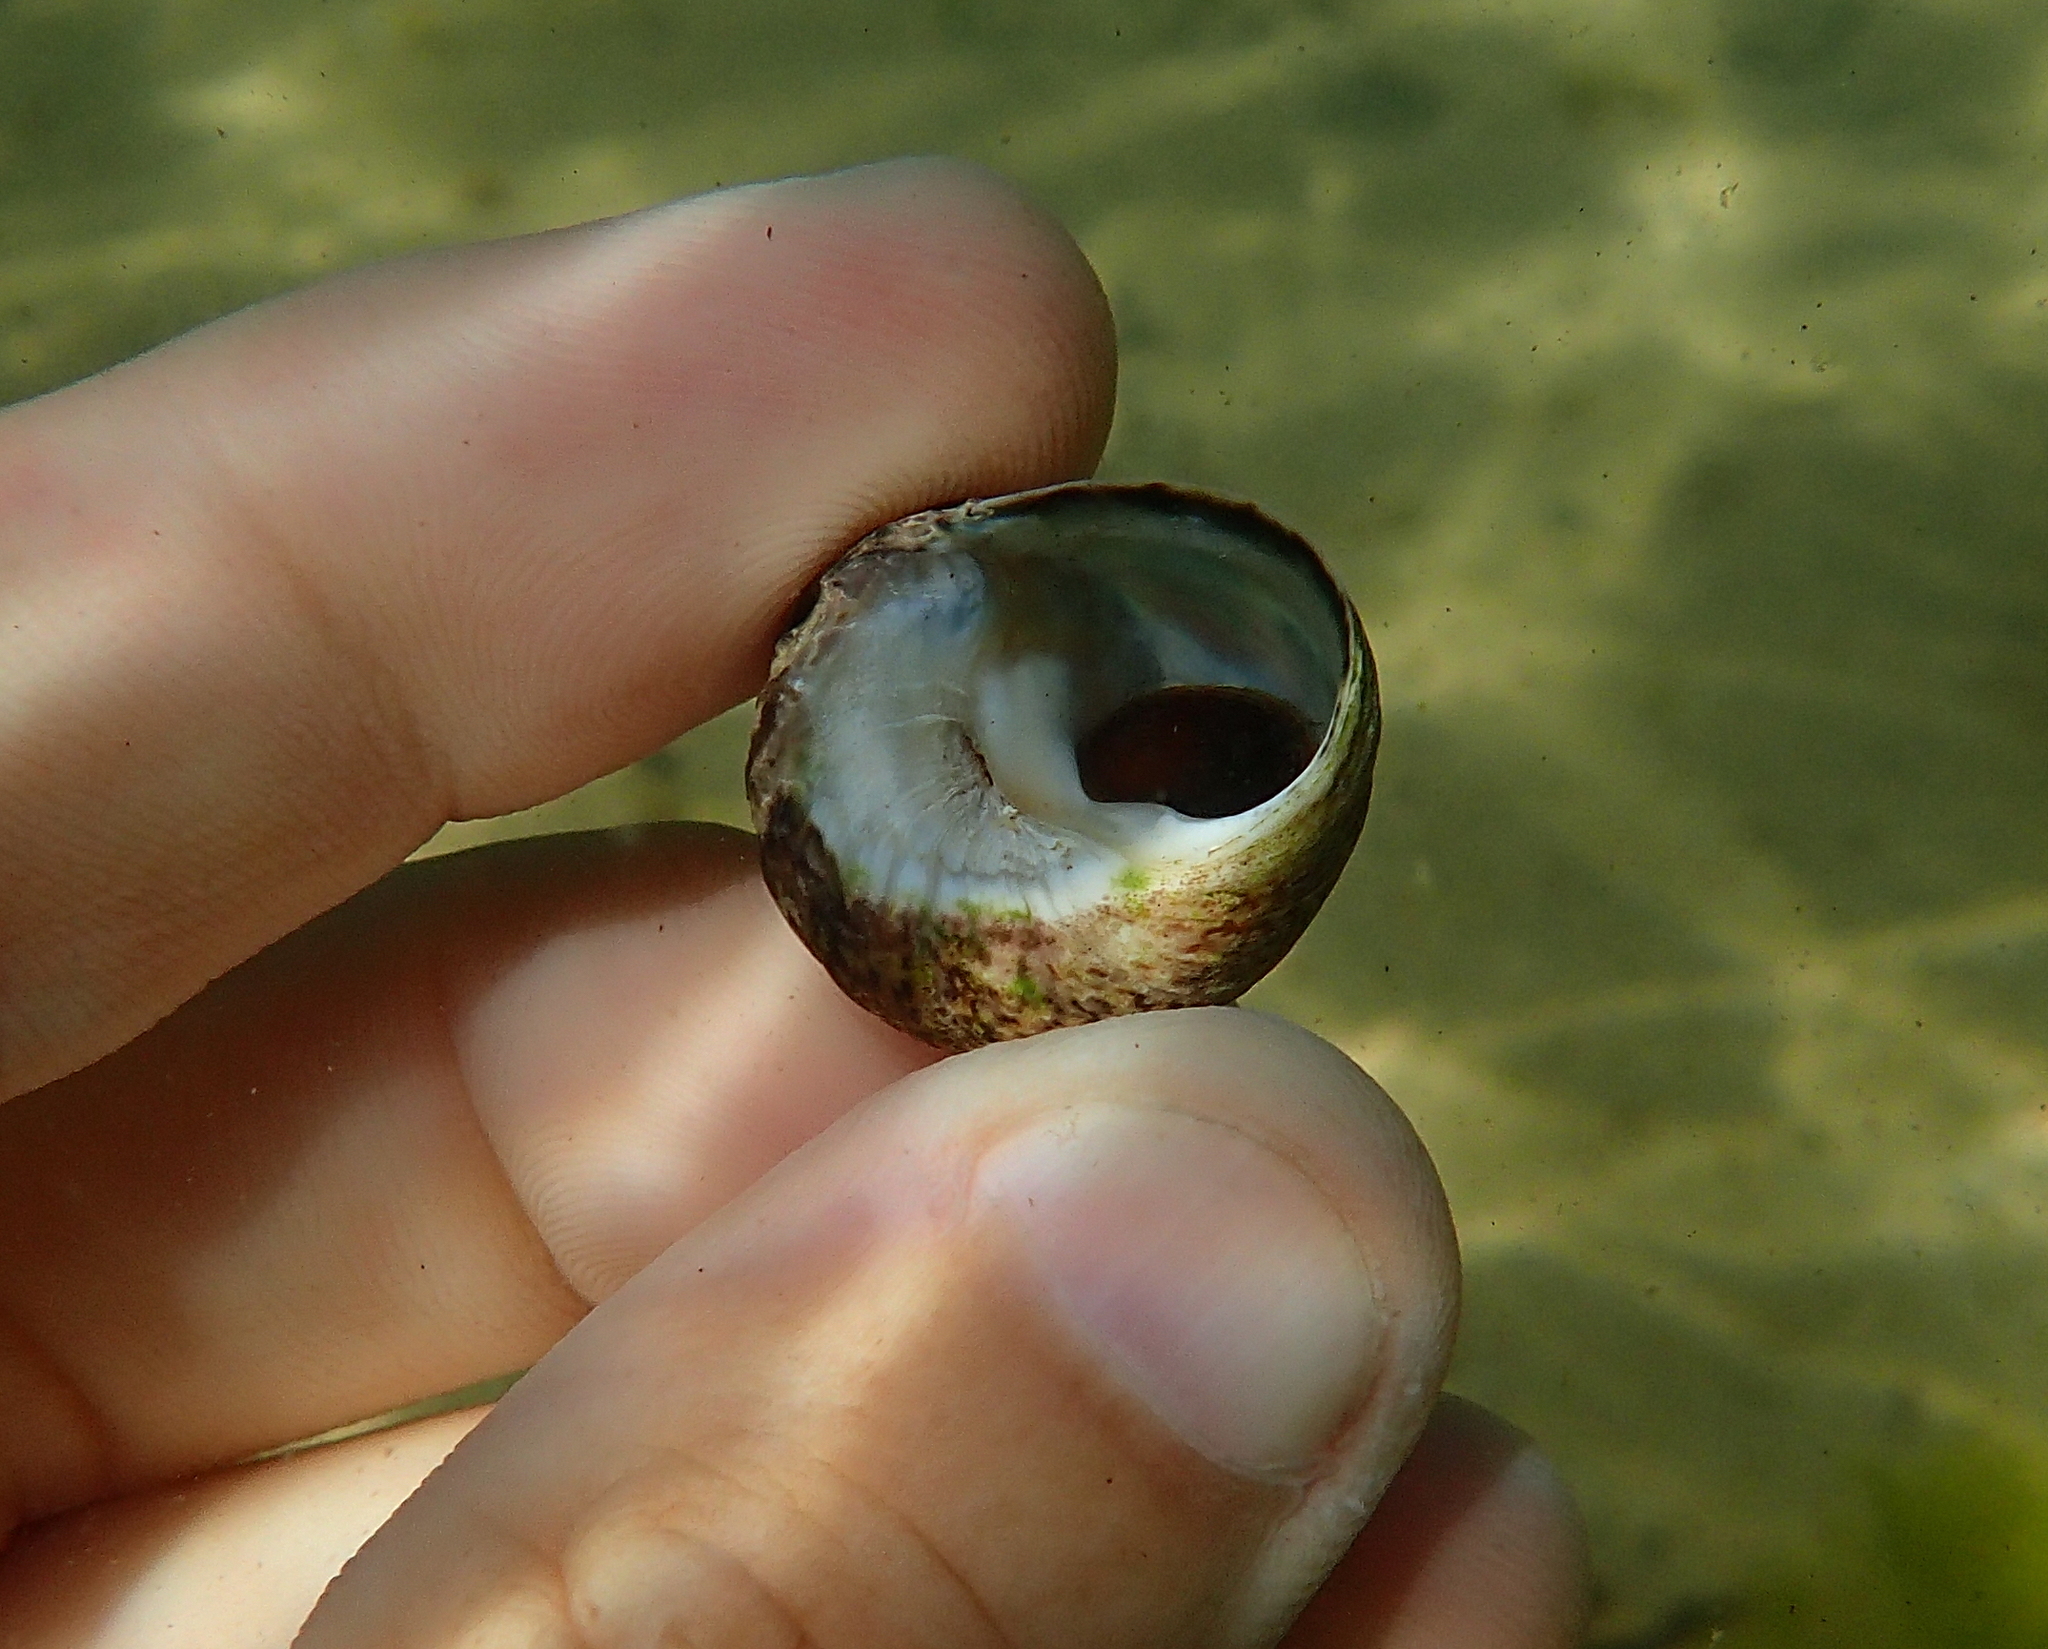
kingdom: Animalia
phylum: Mollusca
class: Gastropoda
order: Trochida
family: Trochidae
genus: Phorcus
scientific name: Phorcus lineatus
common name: Toothed top shell
